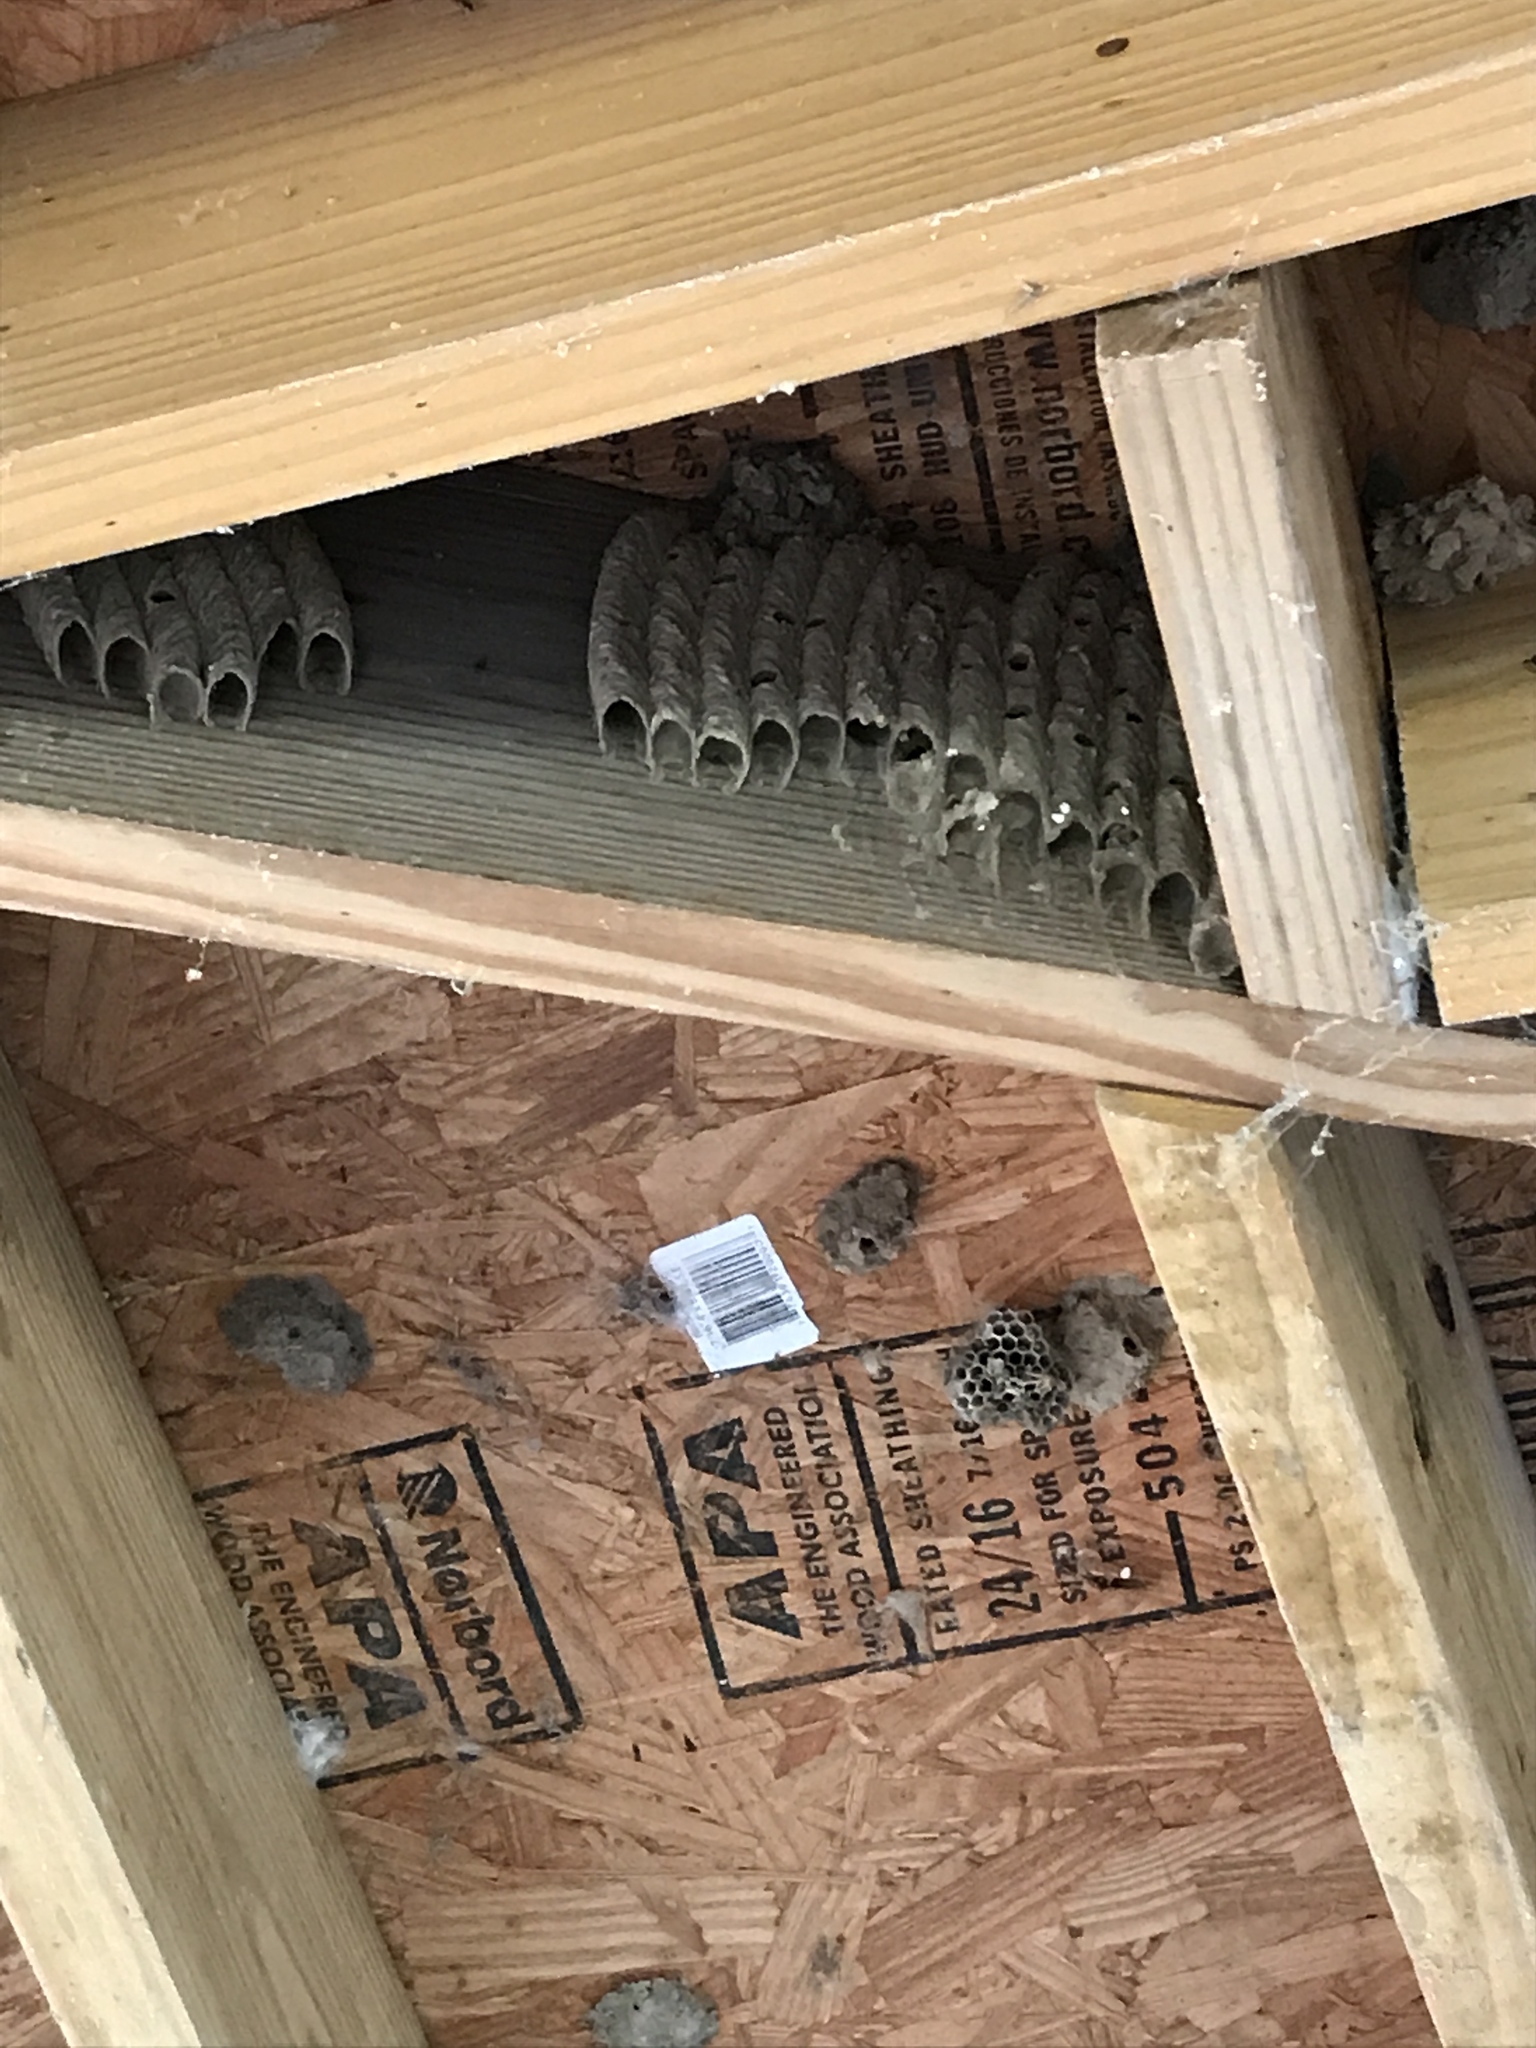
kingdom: Animalia
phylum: Arthropoda
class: Insecta
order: Hymenoptera
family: Crabronidae
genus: Trypoxylon
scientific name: Trypoxylon politum
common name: Organ-pipe mud-dauber wasp
